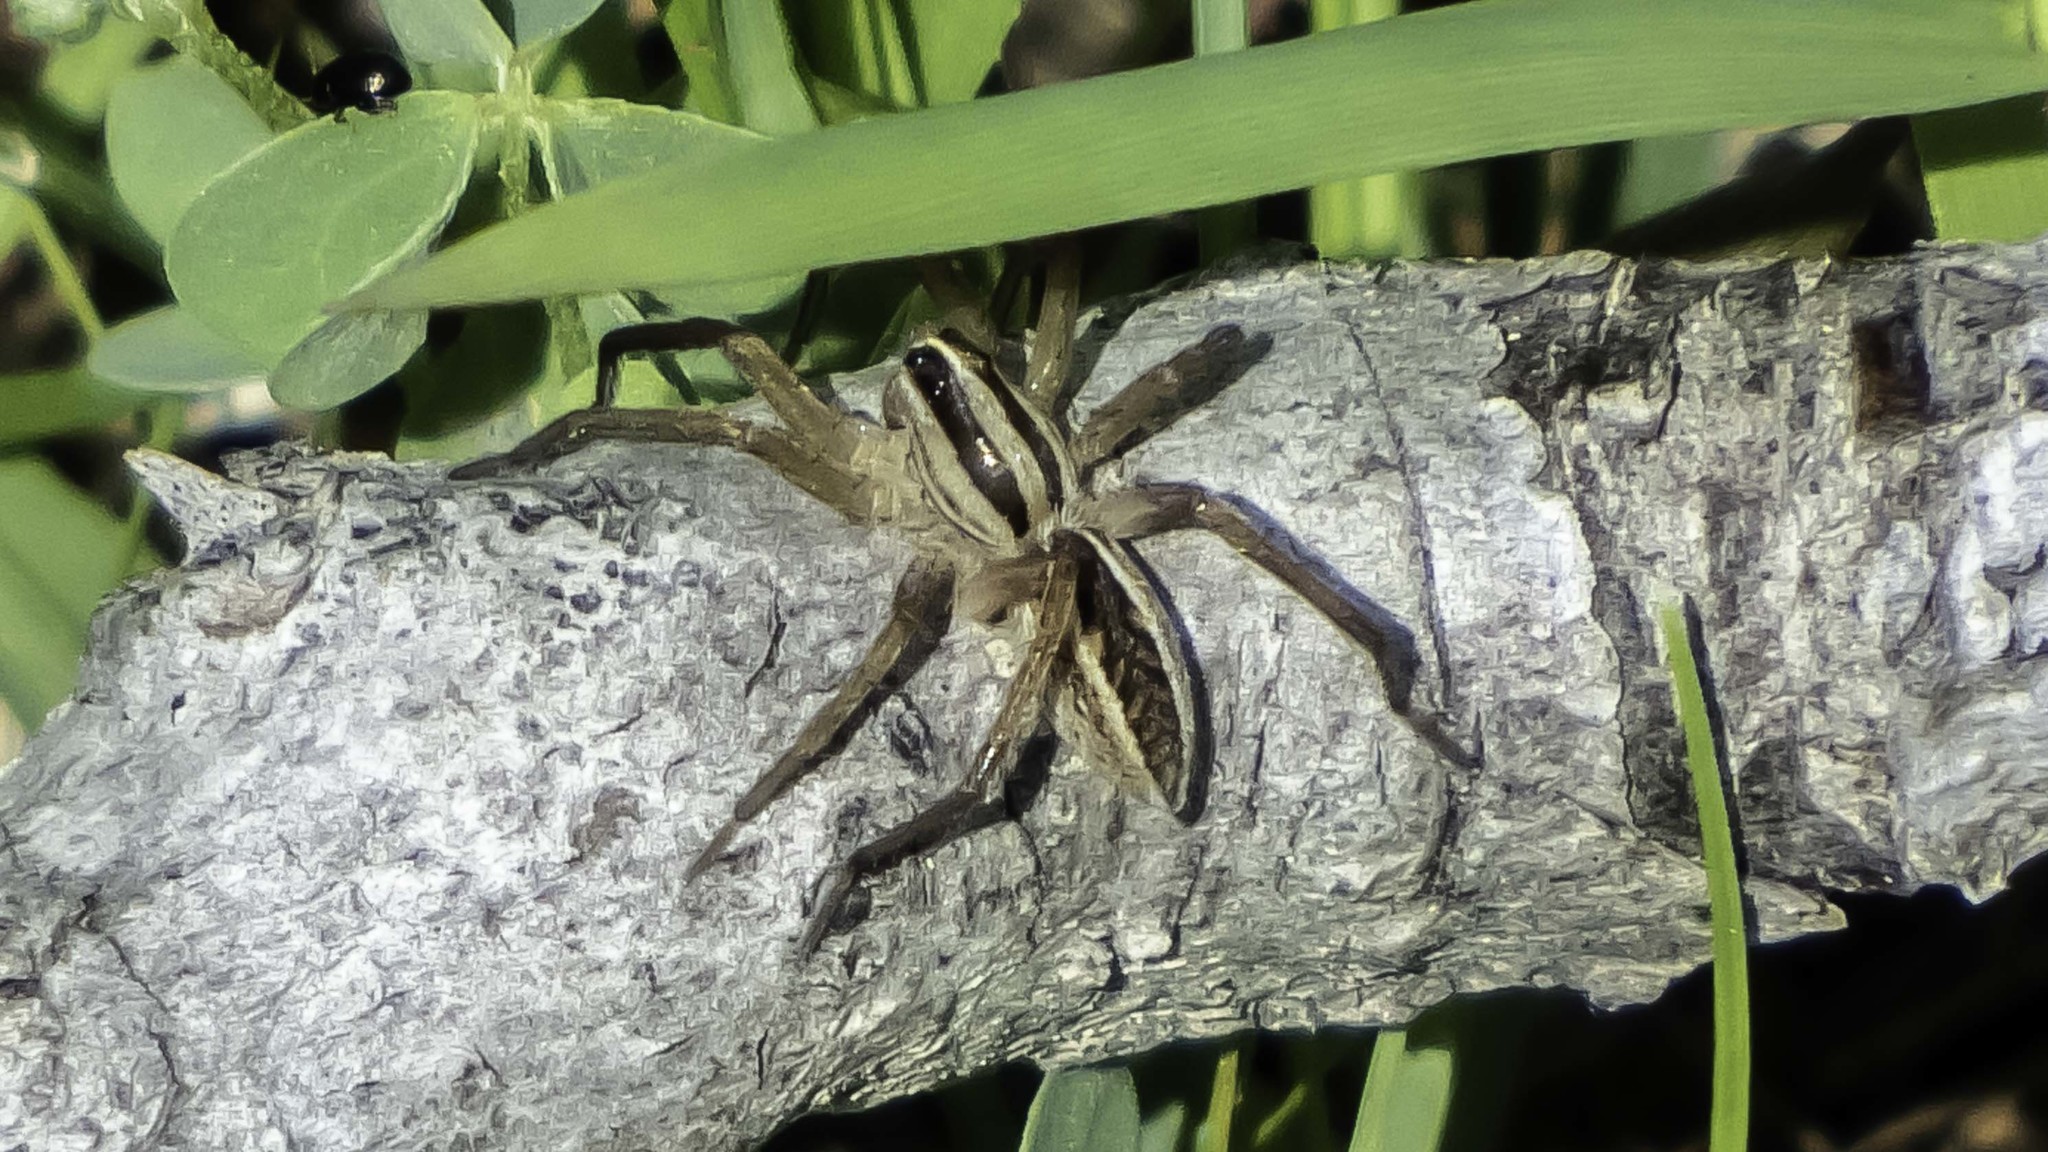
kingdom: Animalia
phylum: Arthropoda
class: Arachnida
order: Araneae
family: Lycosidae
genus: Rabidosa
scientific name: Rabidosa rabida
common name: Rabid wolf spider
